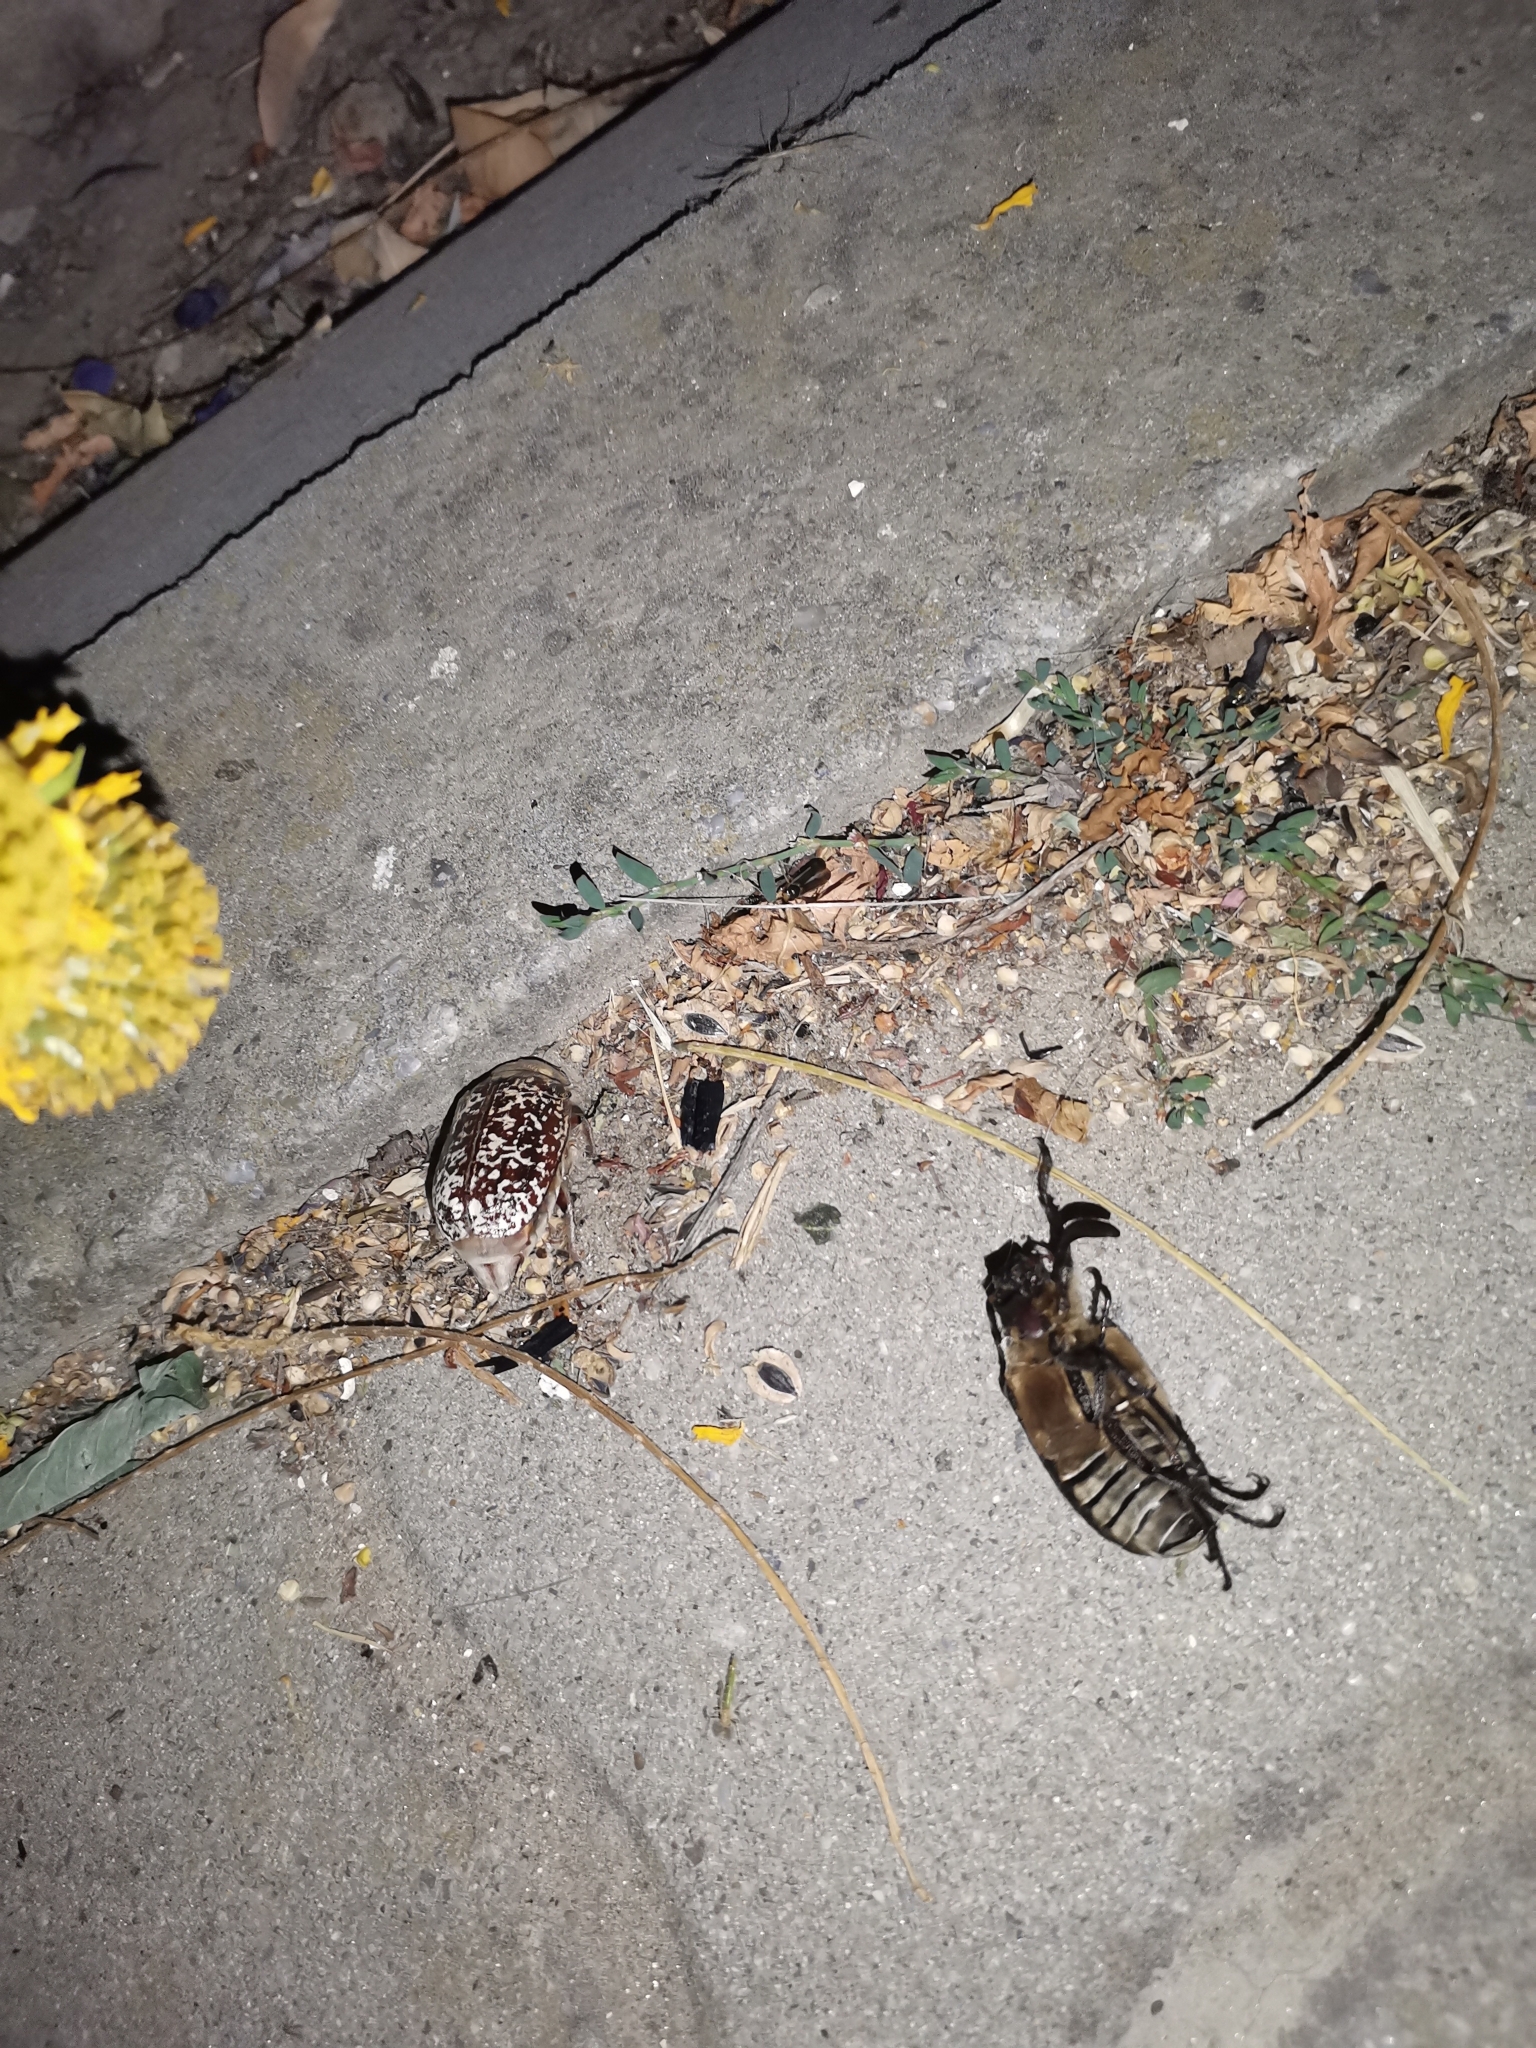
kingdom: Animalia
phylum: Arthropoda
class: Insecta
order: Coleoptera
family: Scarabaeidae
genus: Polyphylla
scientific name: Polyphylla fullo
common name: Pine chafer
